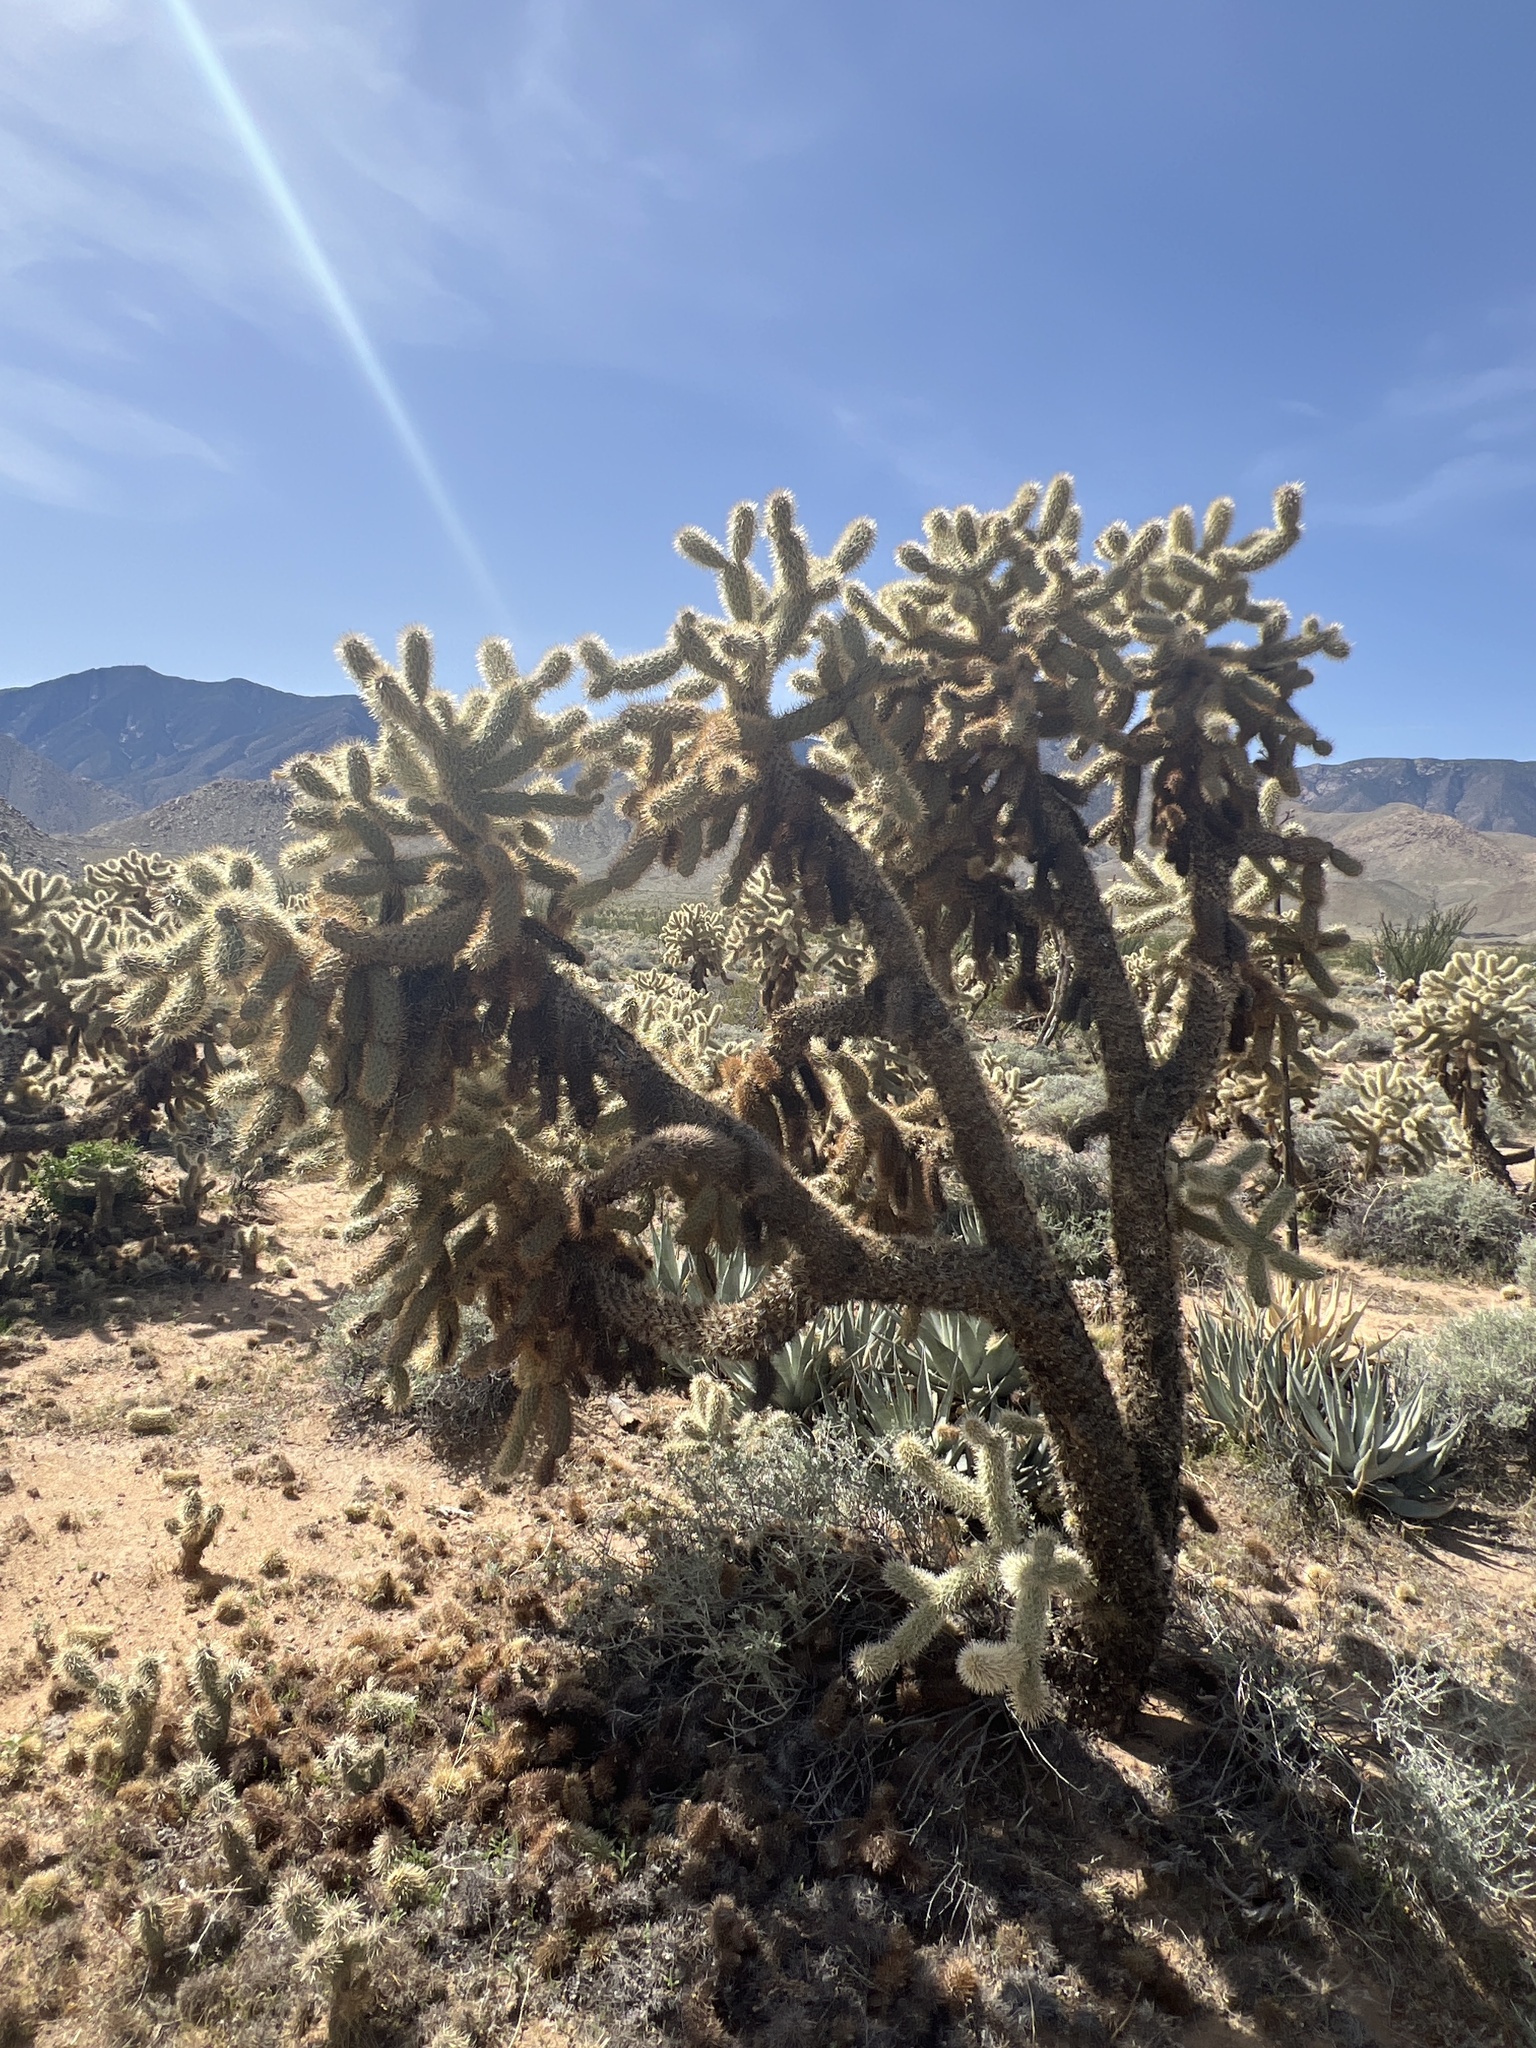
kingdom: Plantae
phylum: Tracheophyta
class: Magnoliopsida
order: Caryophyllales
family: Cactaceae
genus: Cylindropuntia
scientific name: Cylindropuntia fosbergii
